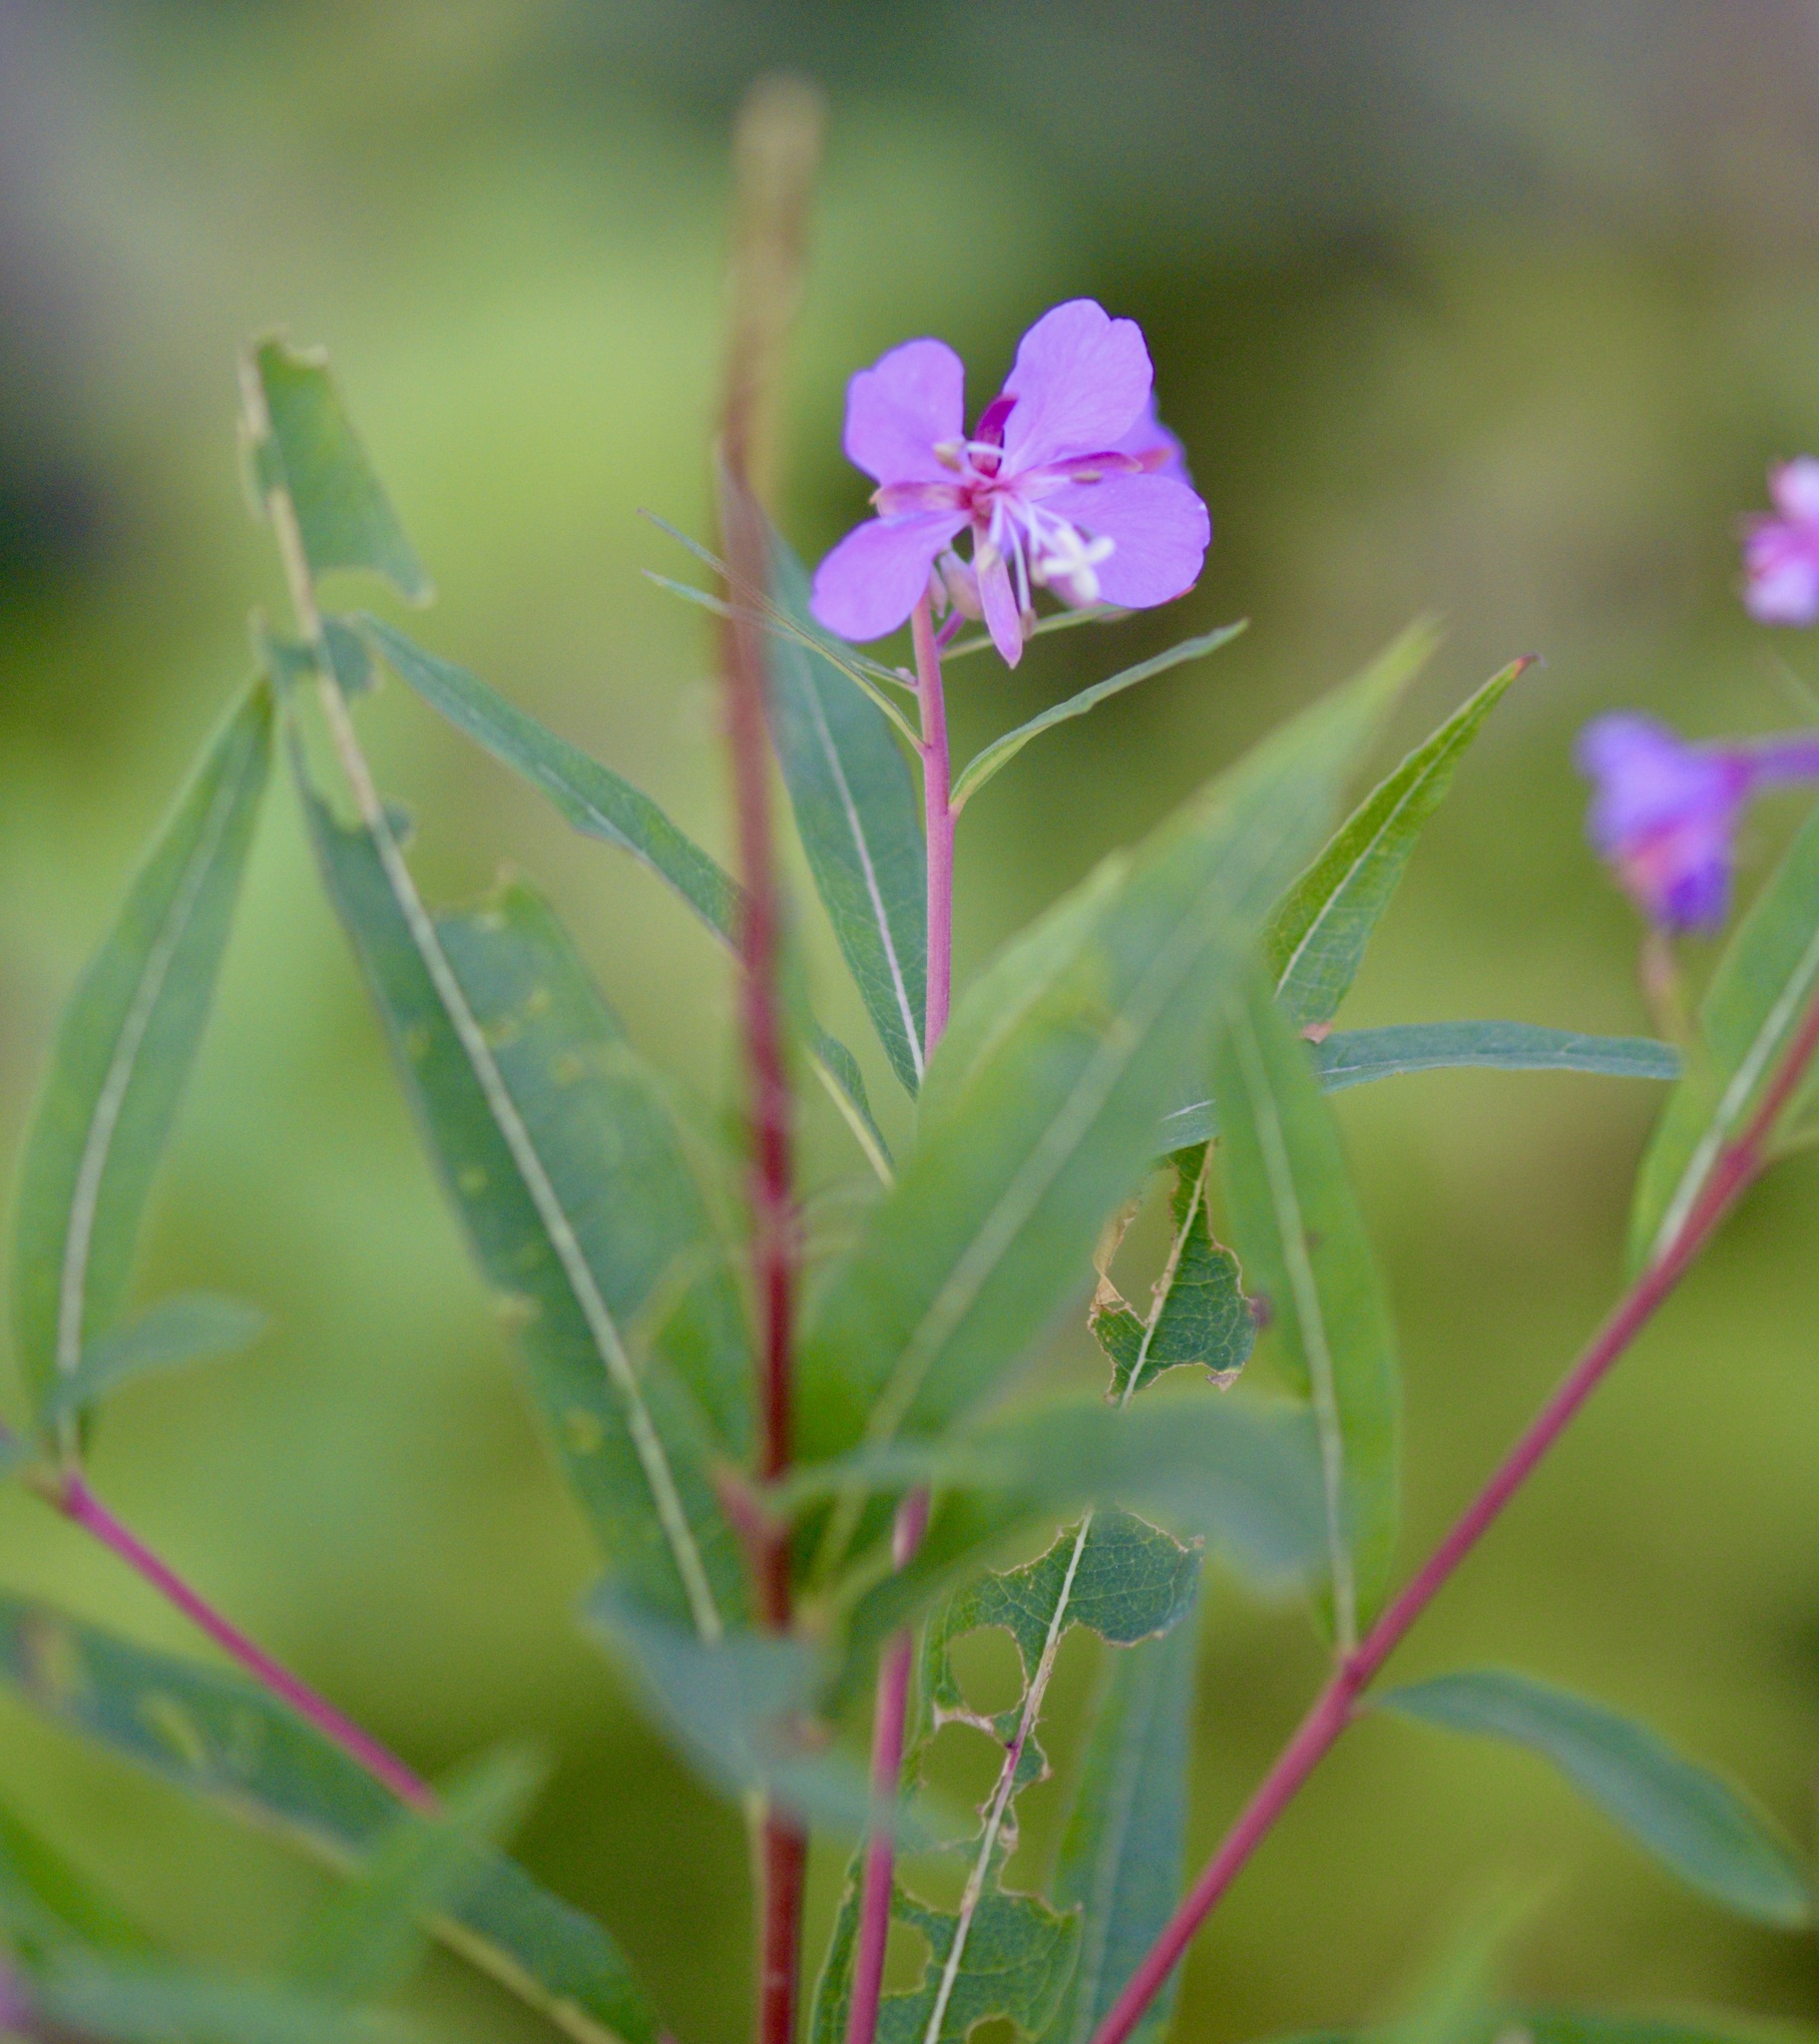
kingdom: Plantae
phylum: Tracheophyta
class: Magnoliopsida
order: Myrtales
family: Onagraceae
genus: Chamaenerion
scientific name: Chamaenerion angustifolium
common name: Fireweed
